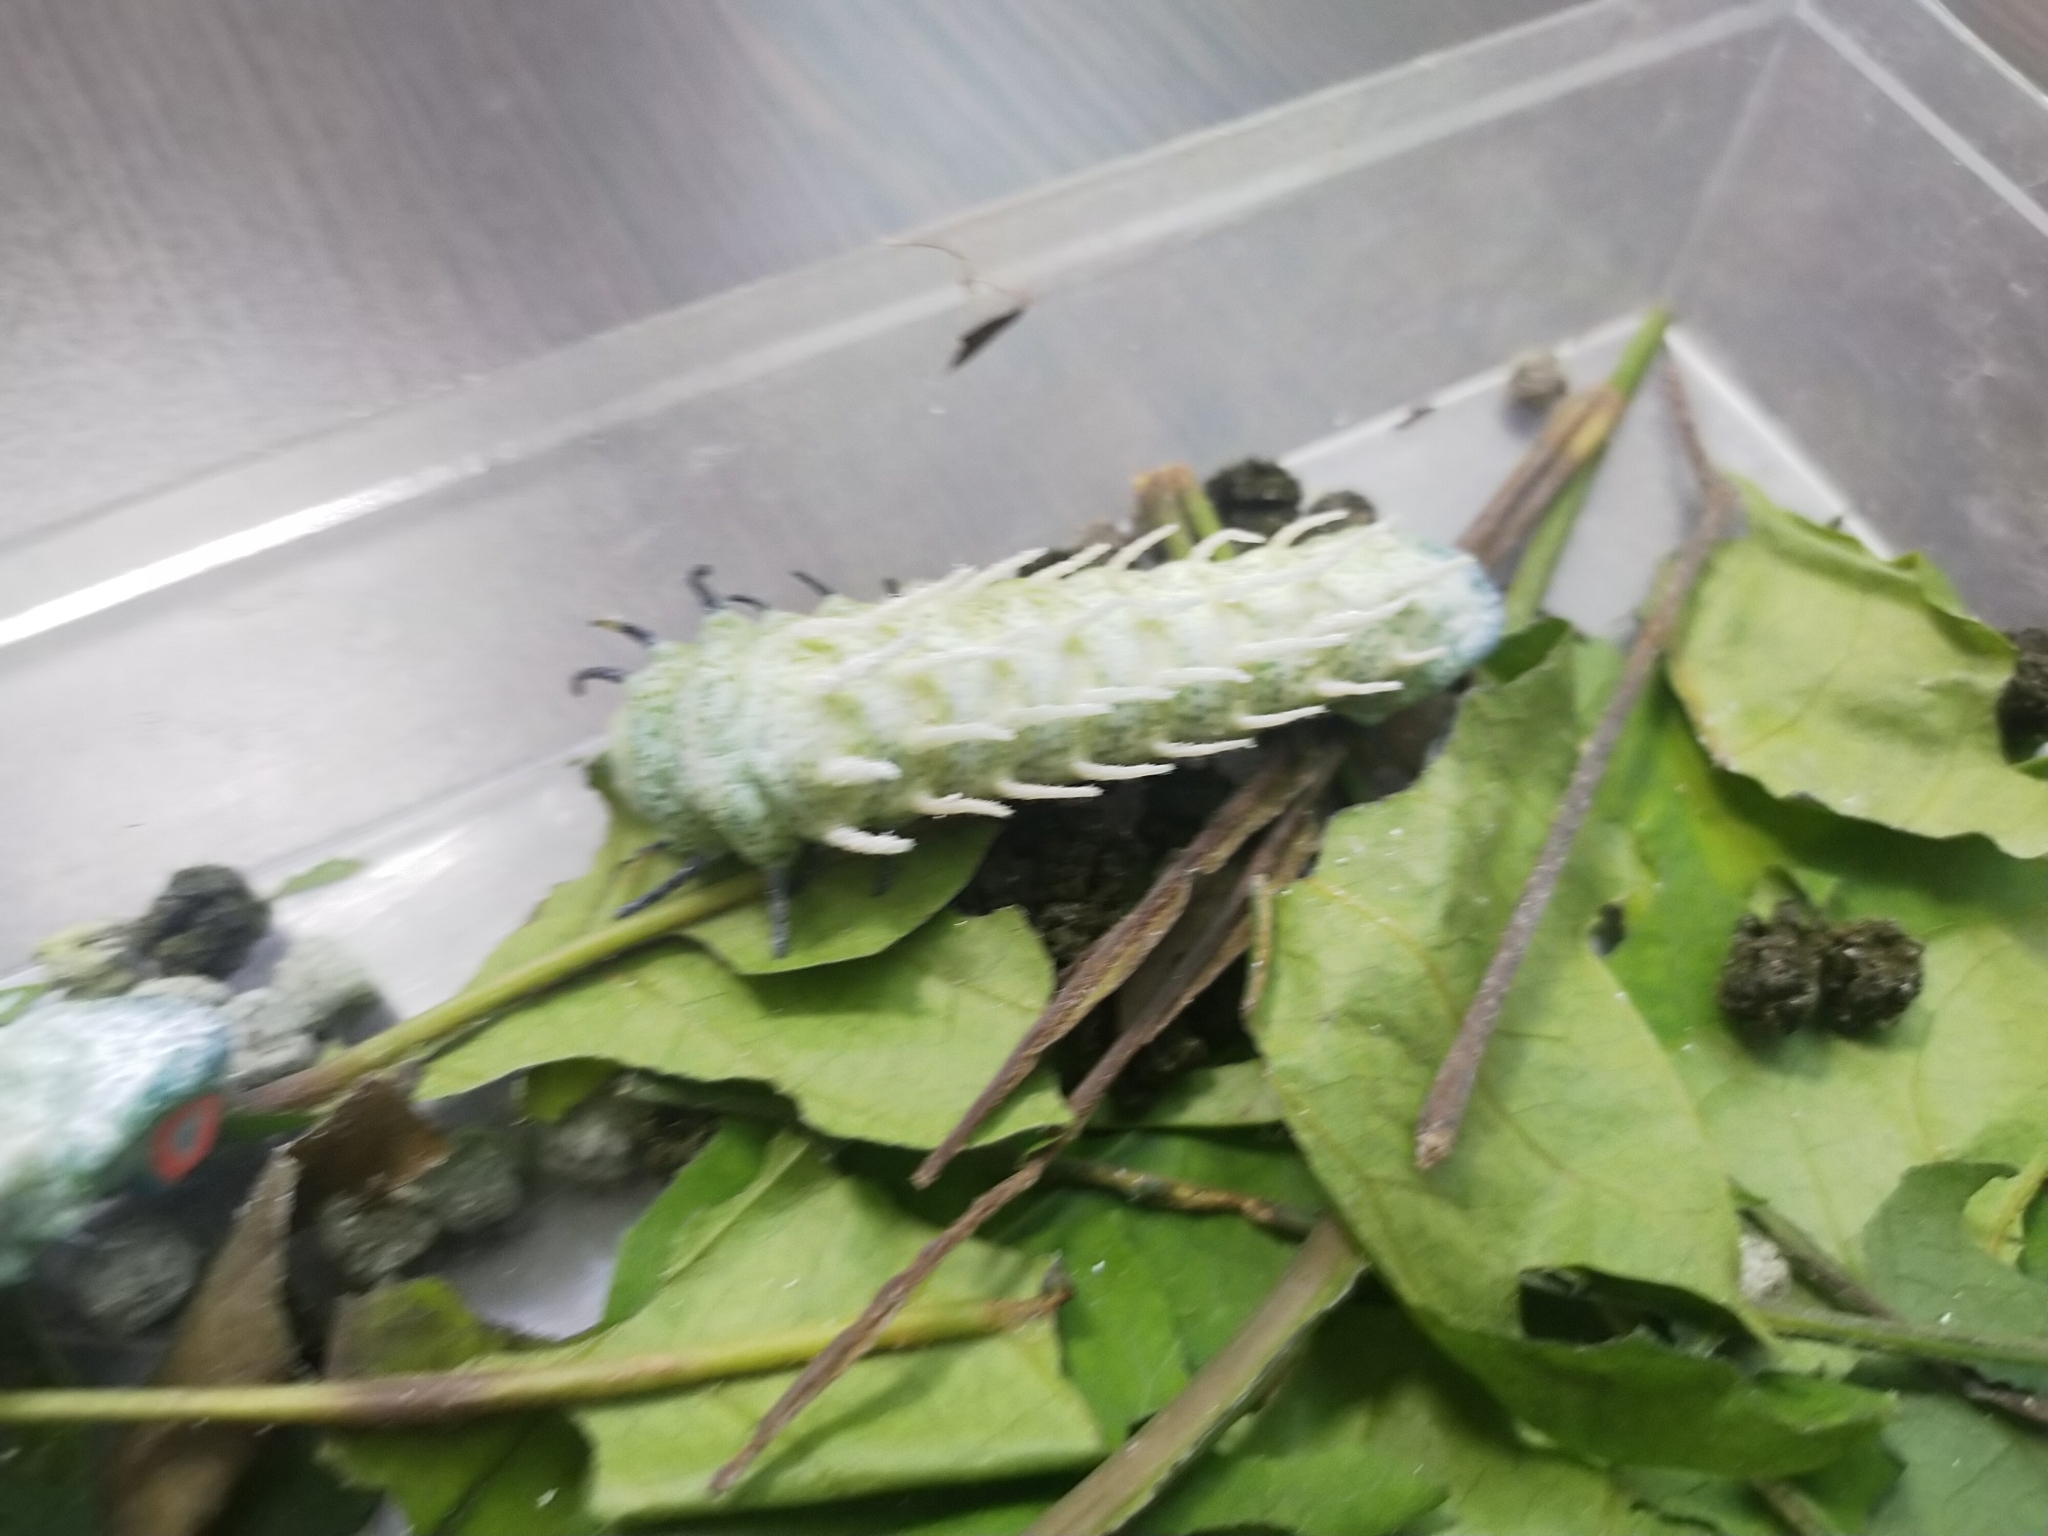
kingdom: Animalia
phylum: Arthropoda
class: Insecta
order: Lepidoptera
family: Saturniidae
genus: Attacus
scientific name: Attacus atlas
